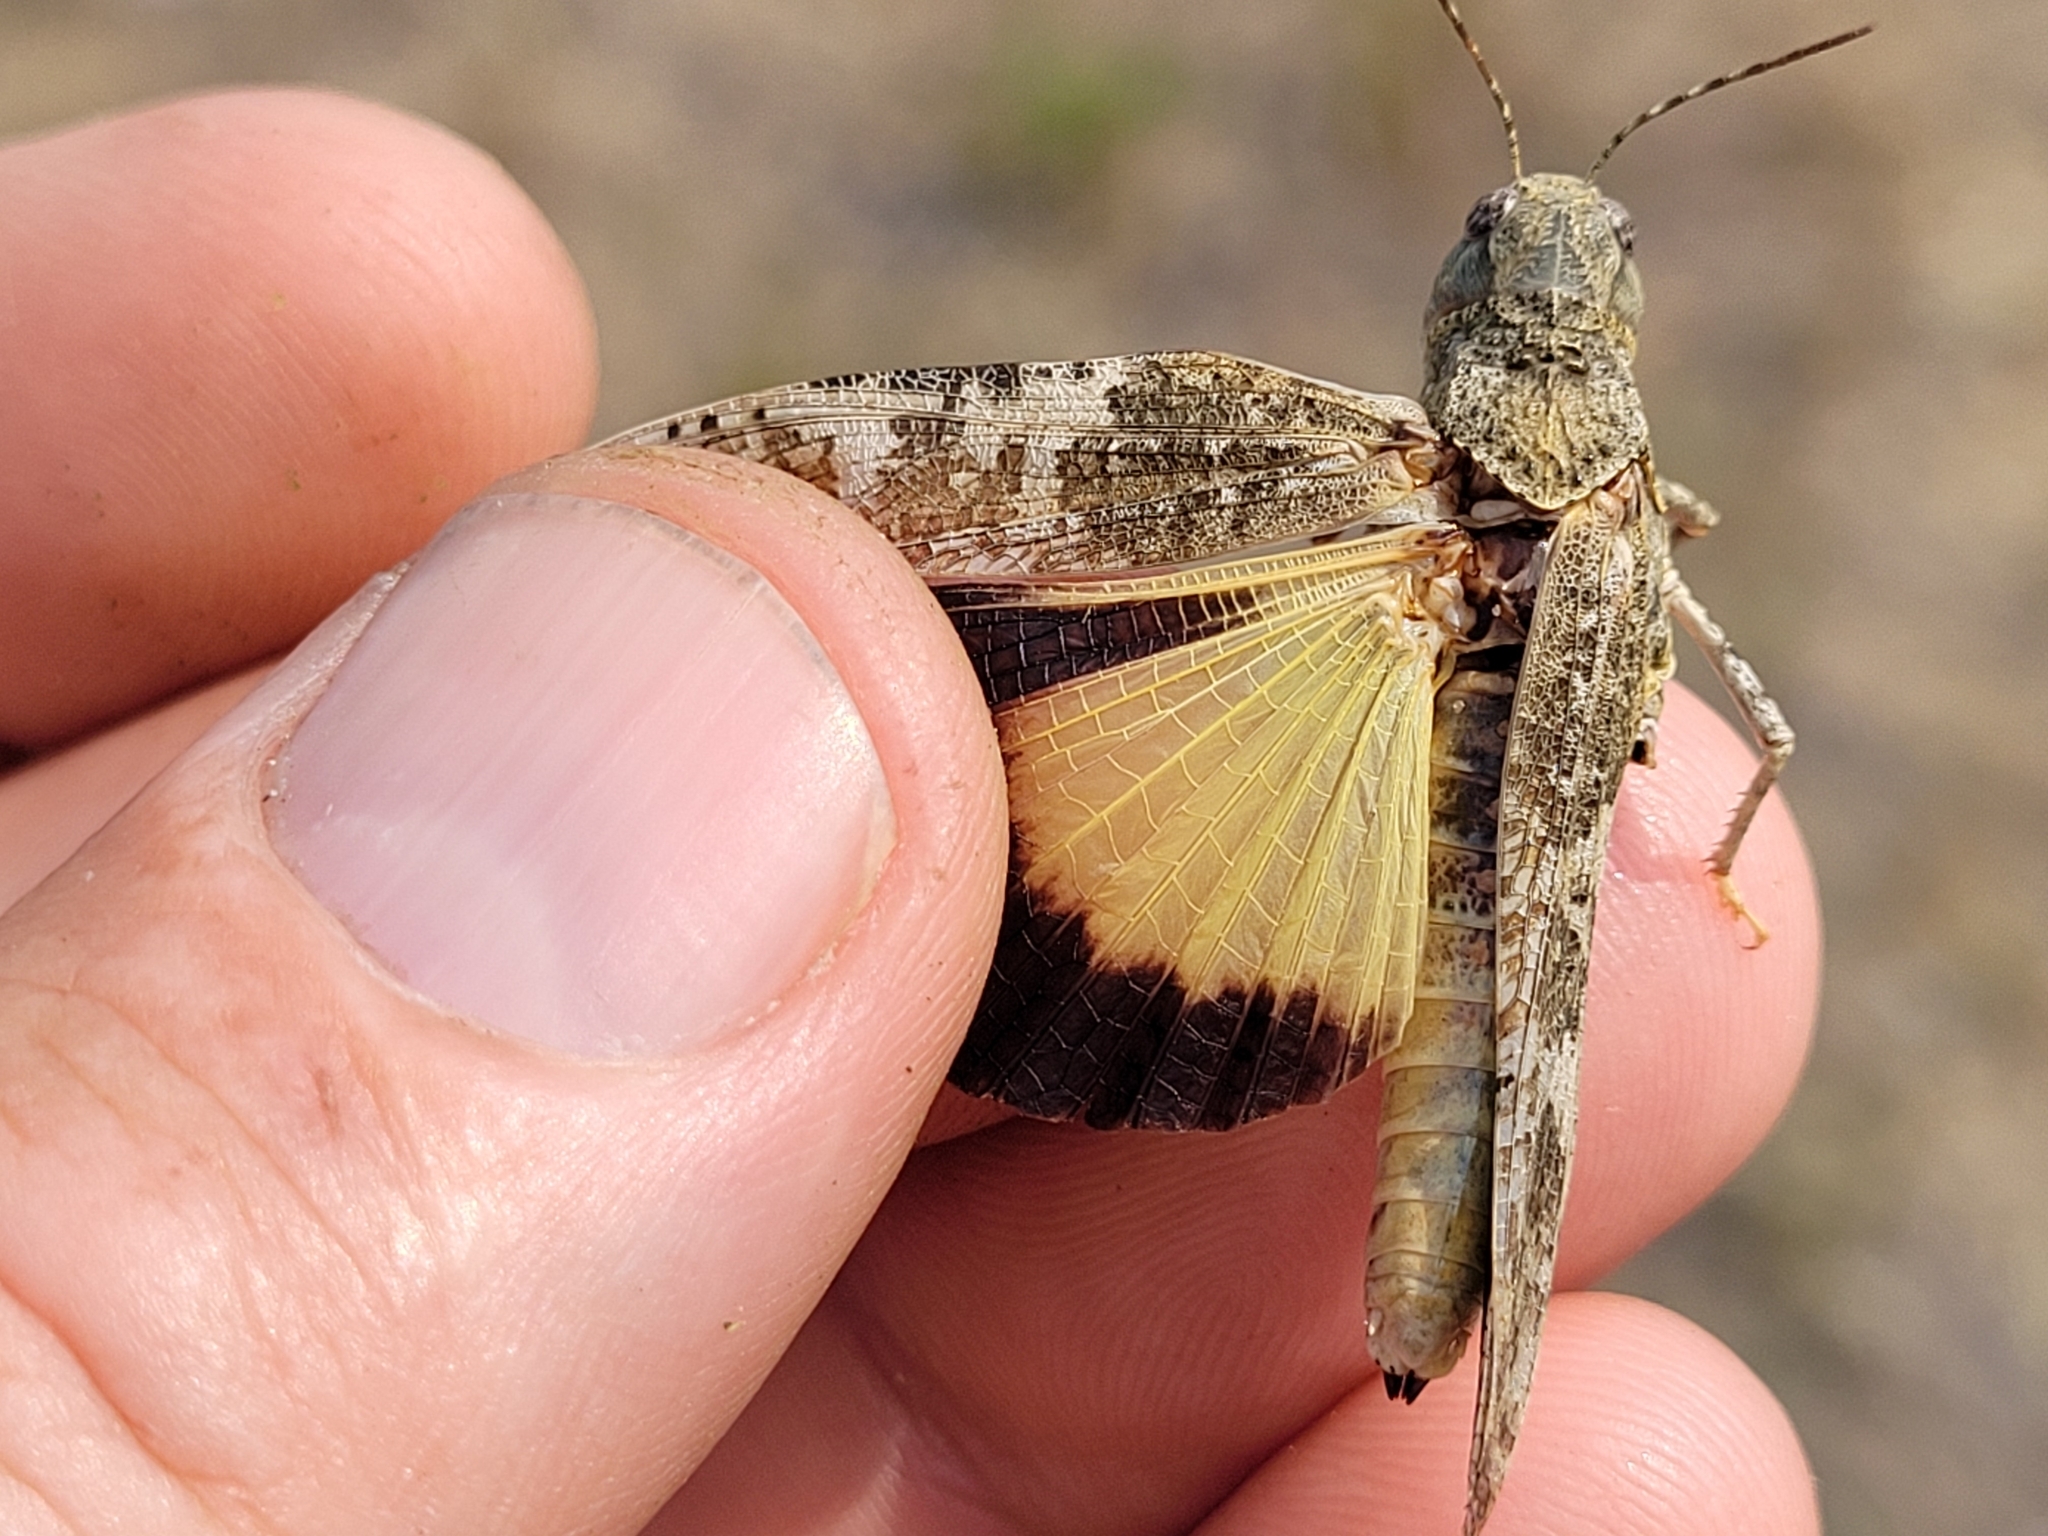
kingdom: Animalia
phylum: Arthropoda
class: Insecta
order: Orthoptera
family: Acrididae
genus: Xanthippus
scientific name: Xanthippus corallipes
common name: Redshanked grasshopper
